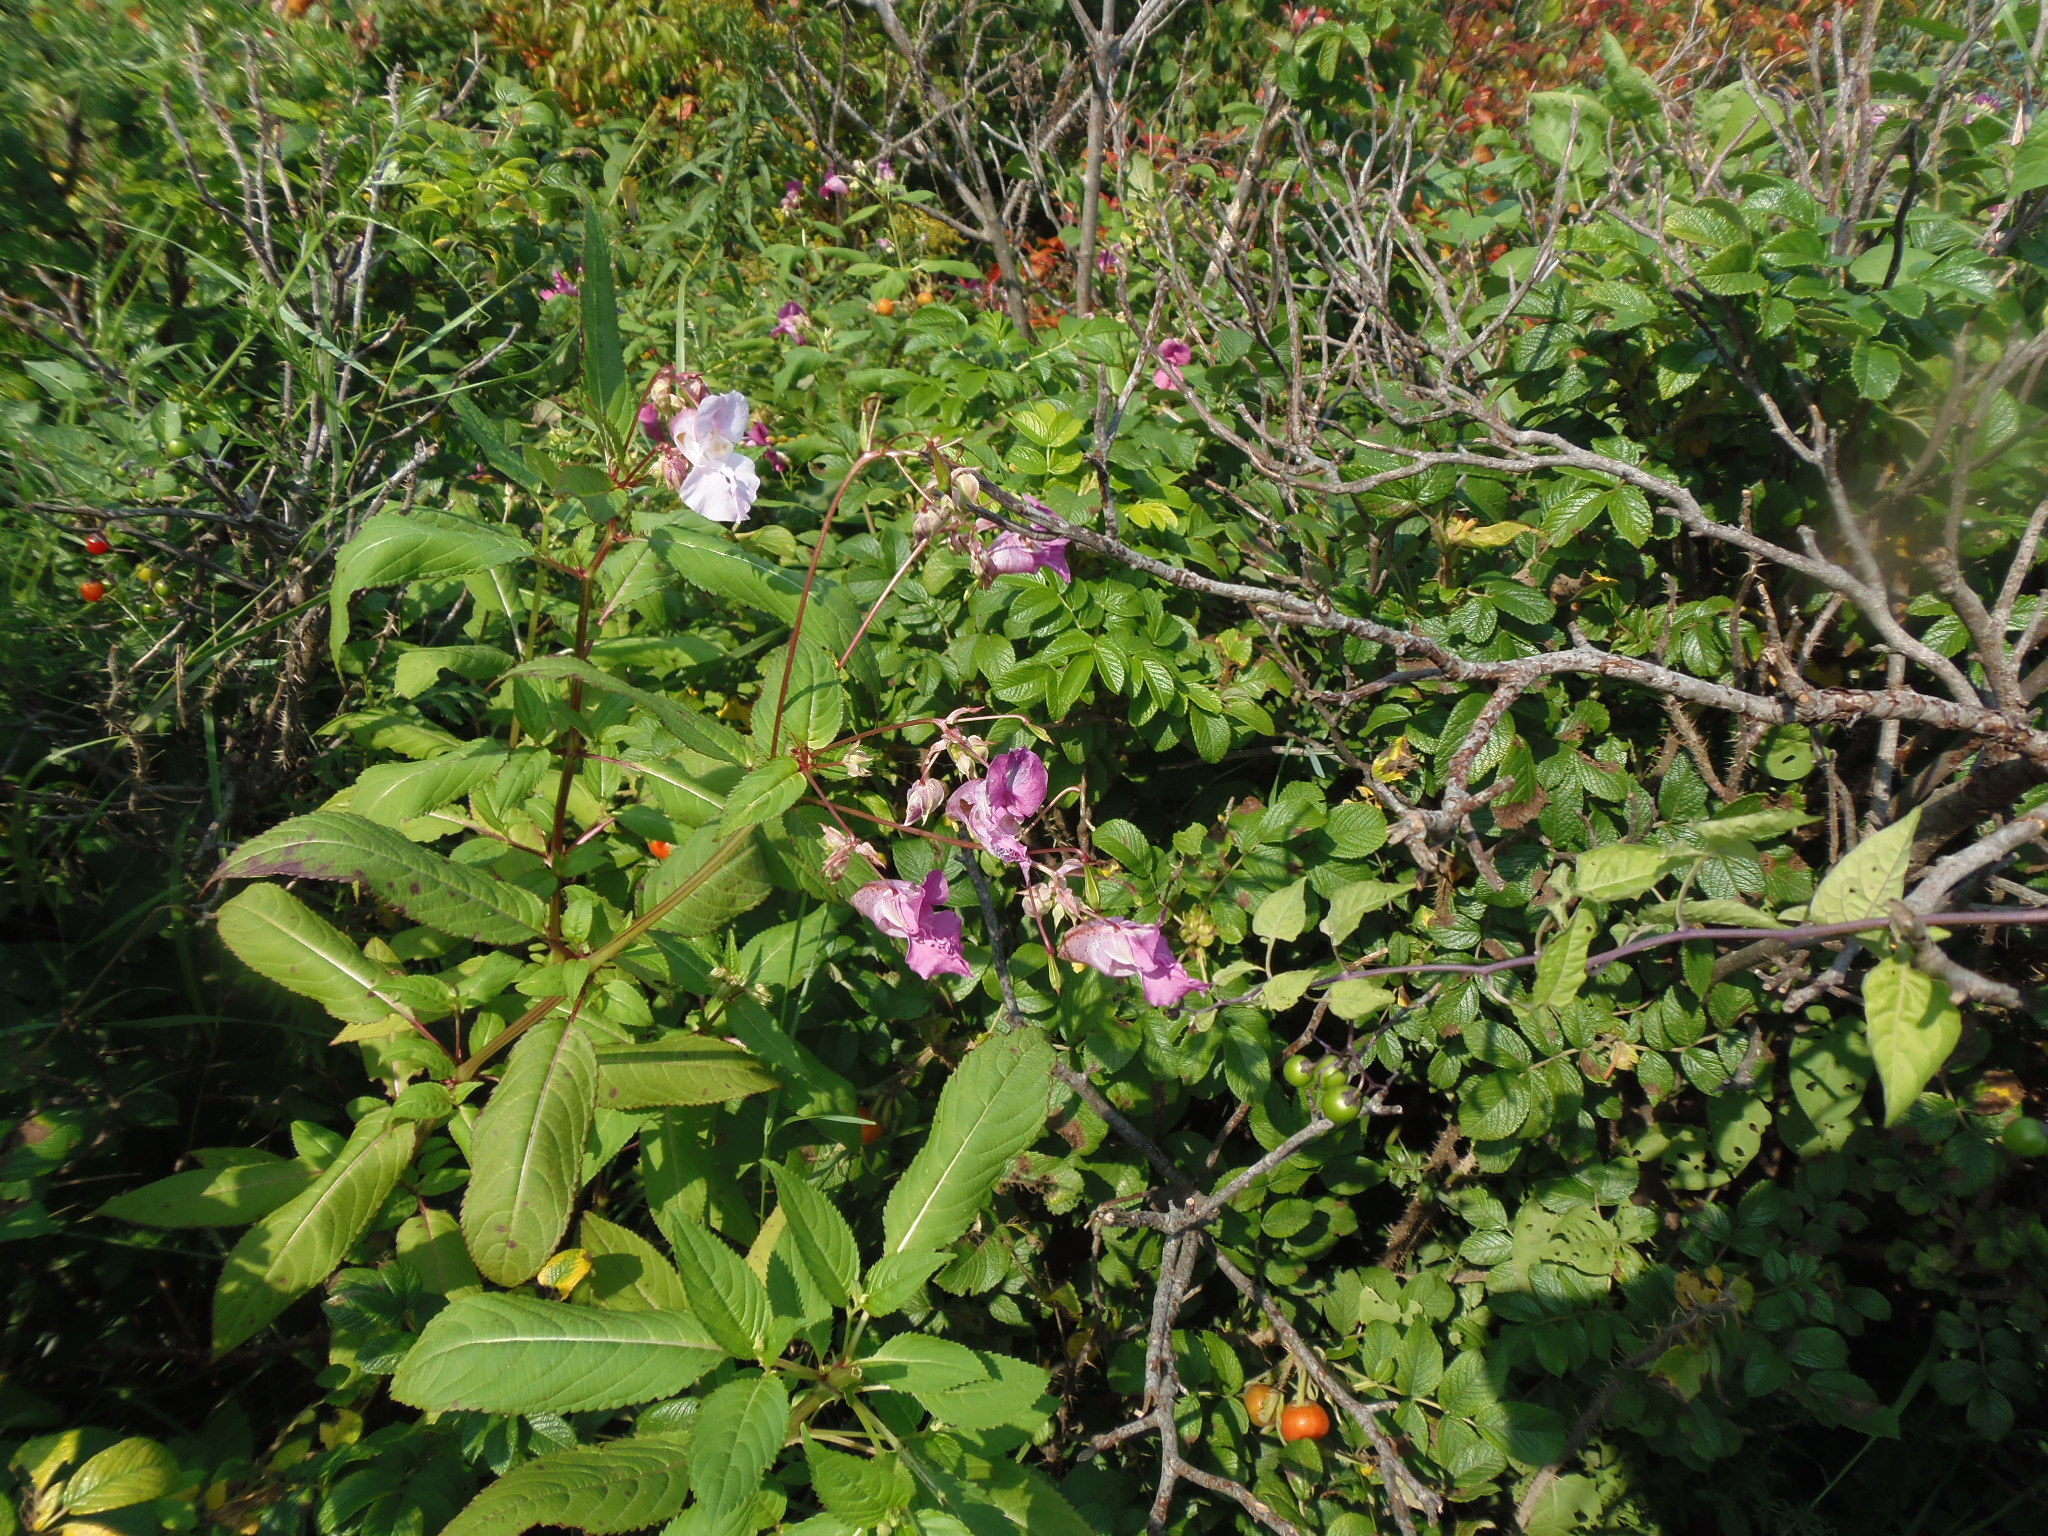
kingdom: Plantae
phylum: Tracheophyta
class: Magnoliopsida
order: Ericales
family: Balsaminaceae
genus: Impatiens
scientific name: Impatiens glandulifera
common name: Himalayan balsam
